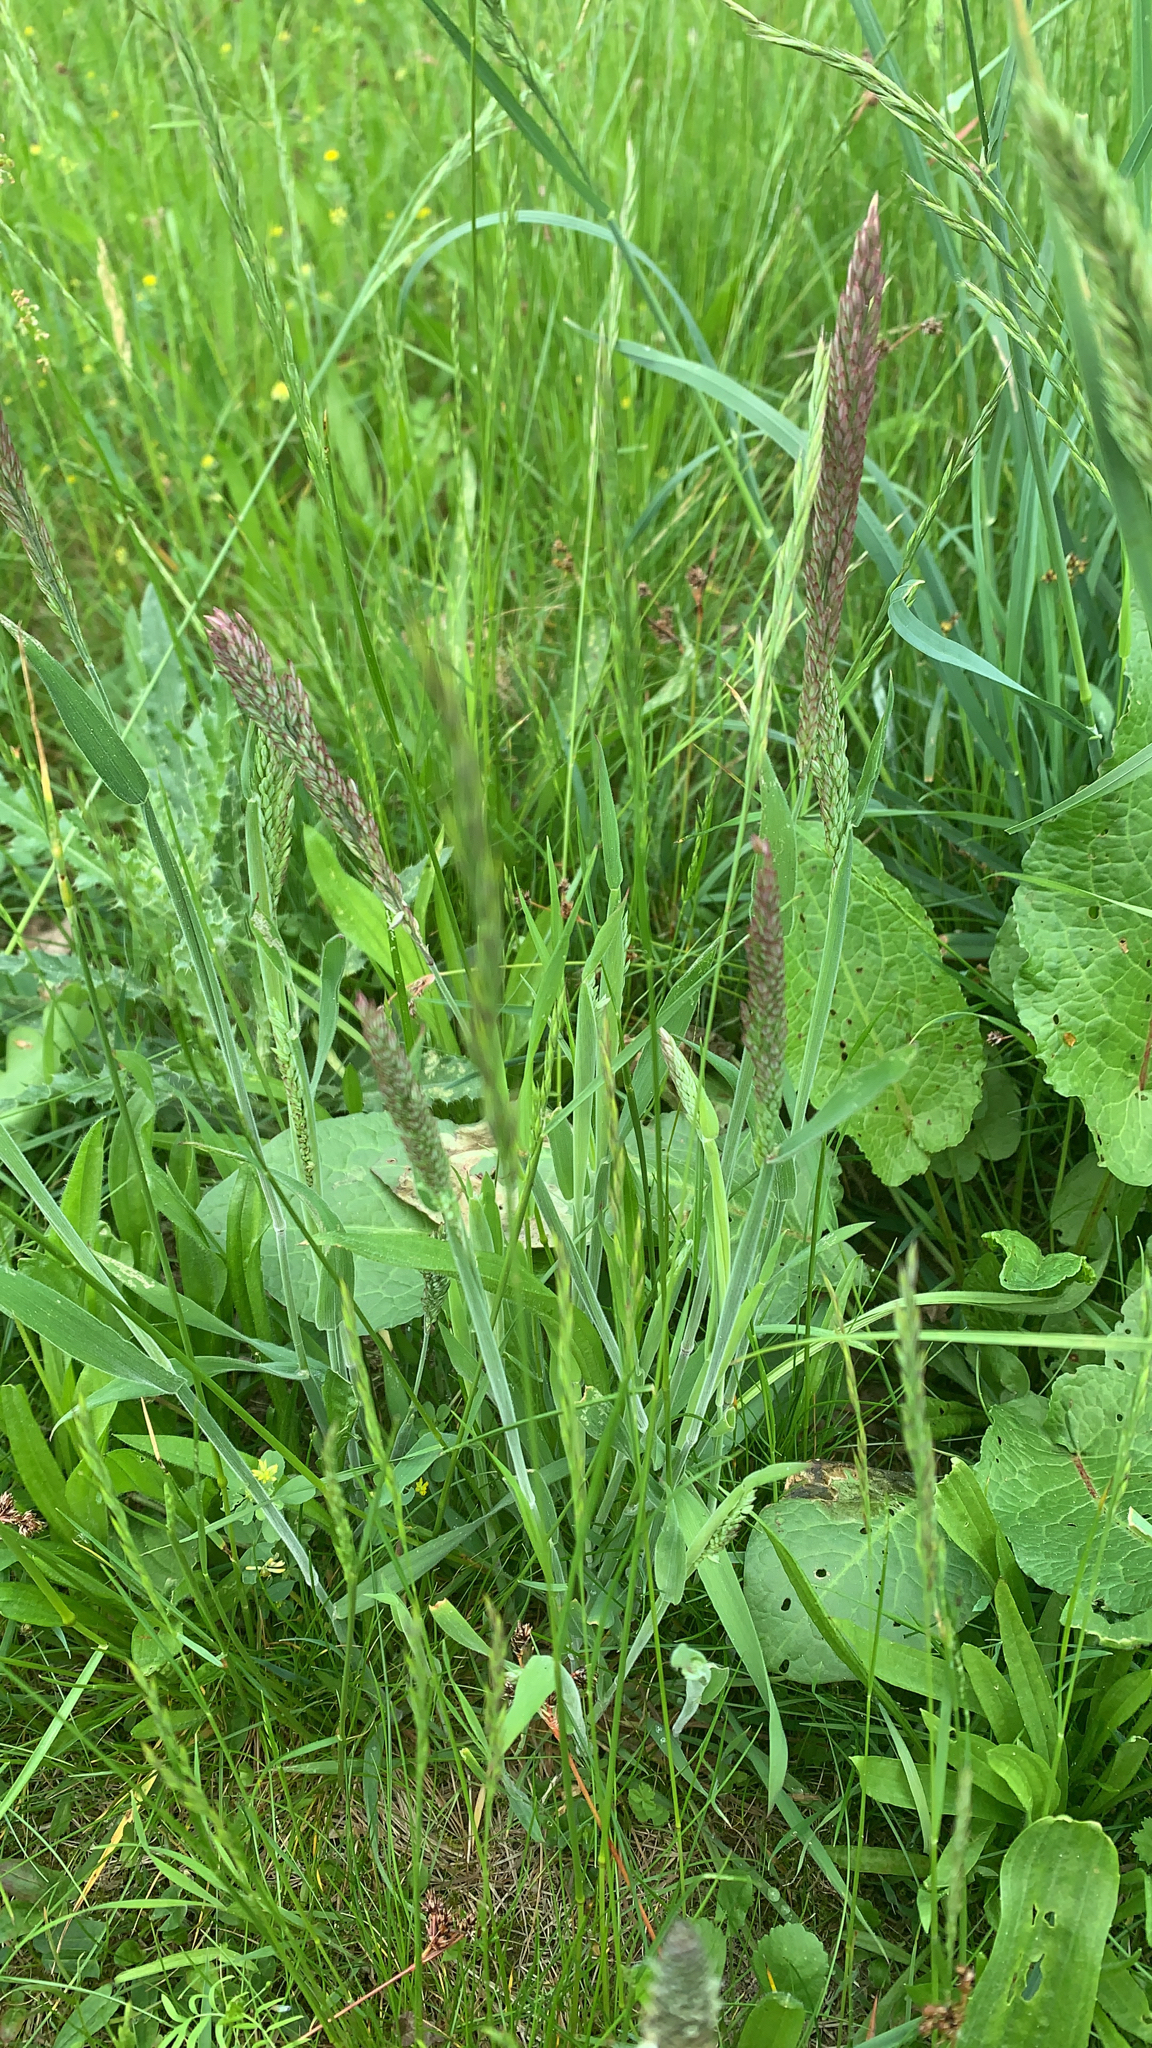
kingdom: Plantae
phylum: Tracheophyta
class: Liliopsida
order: Poales
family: Poaceae
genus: Holcus
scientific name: Holcus lanatus
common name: Yorkshire-fog
